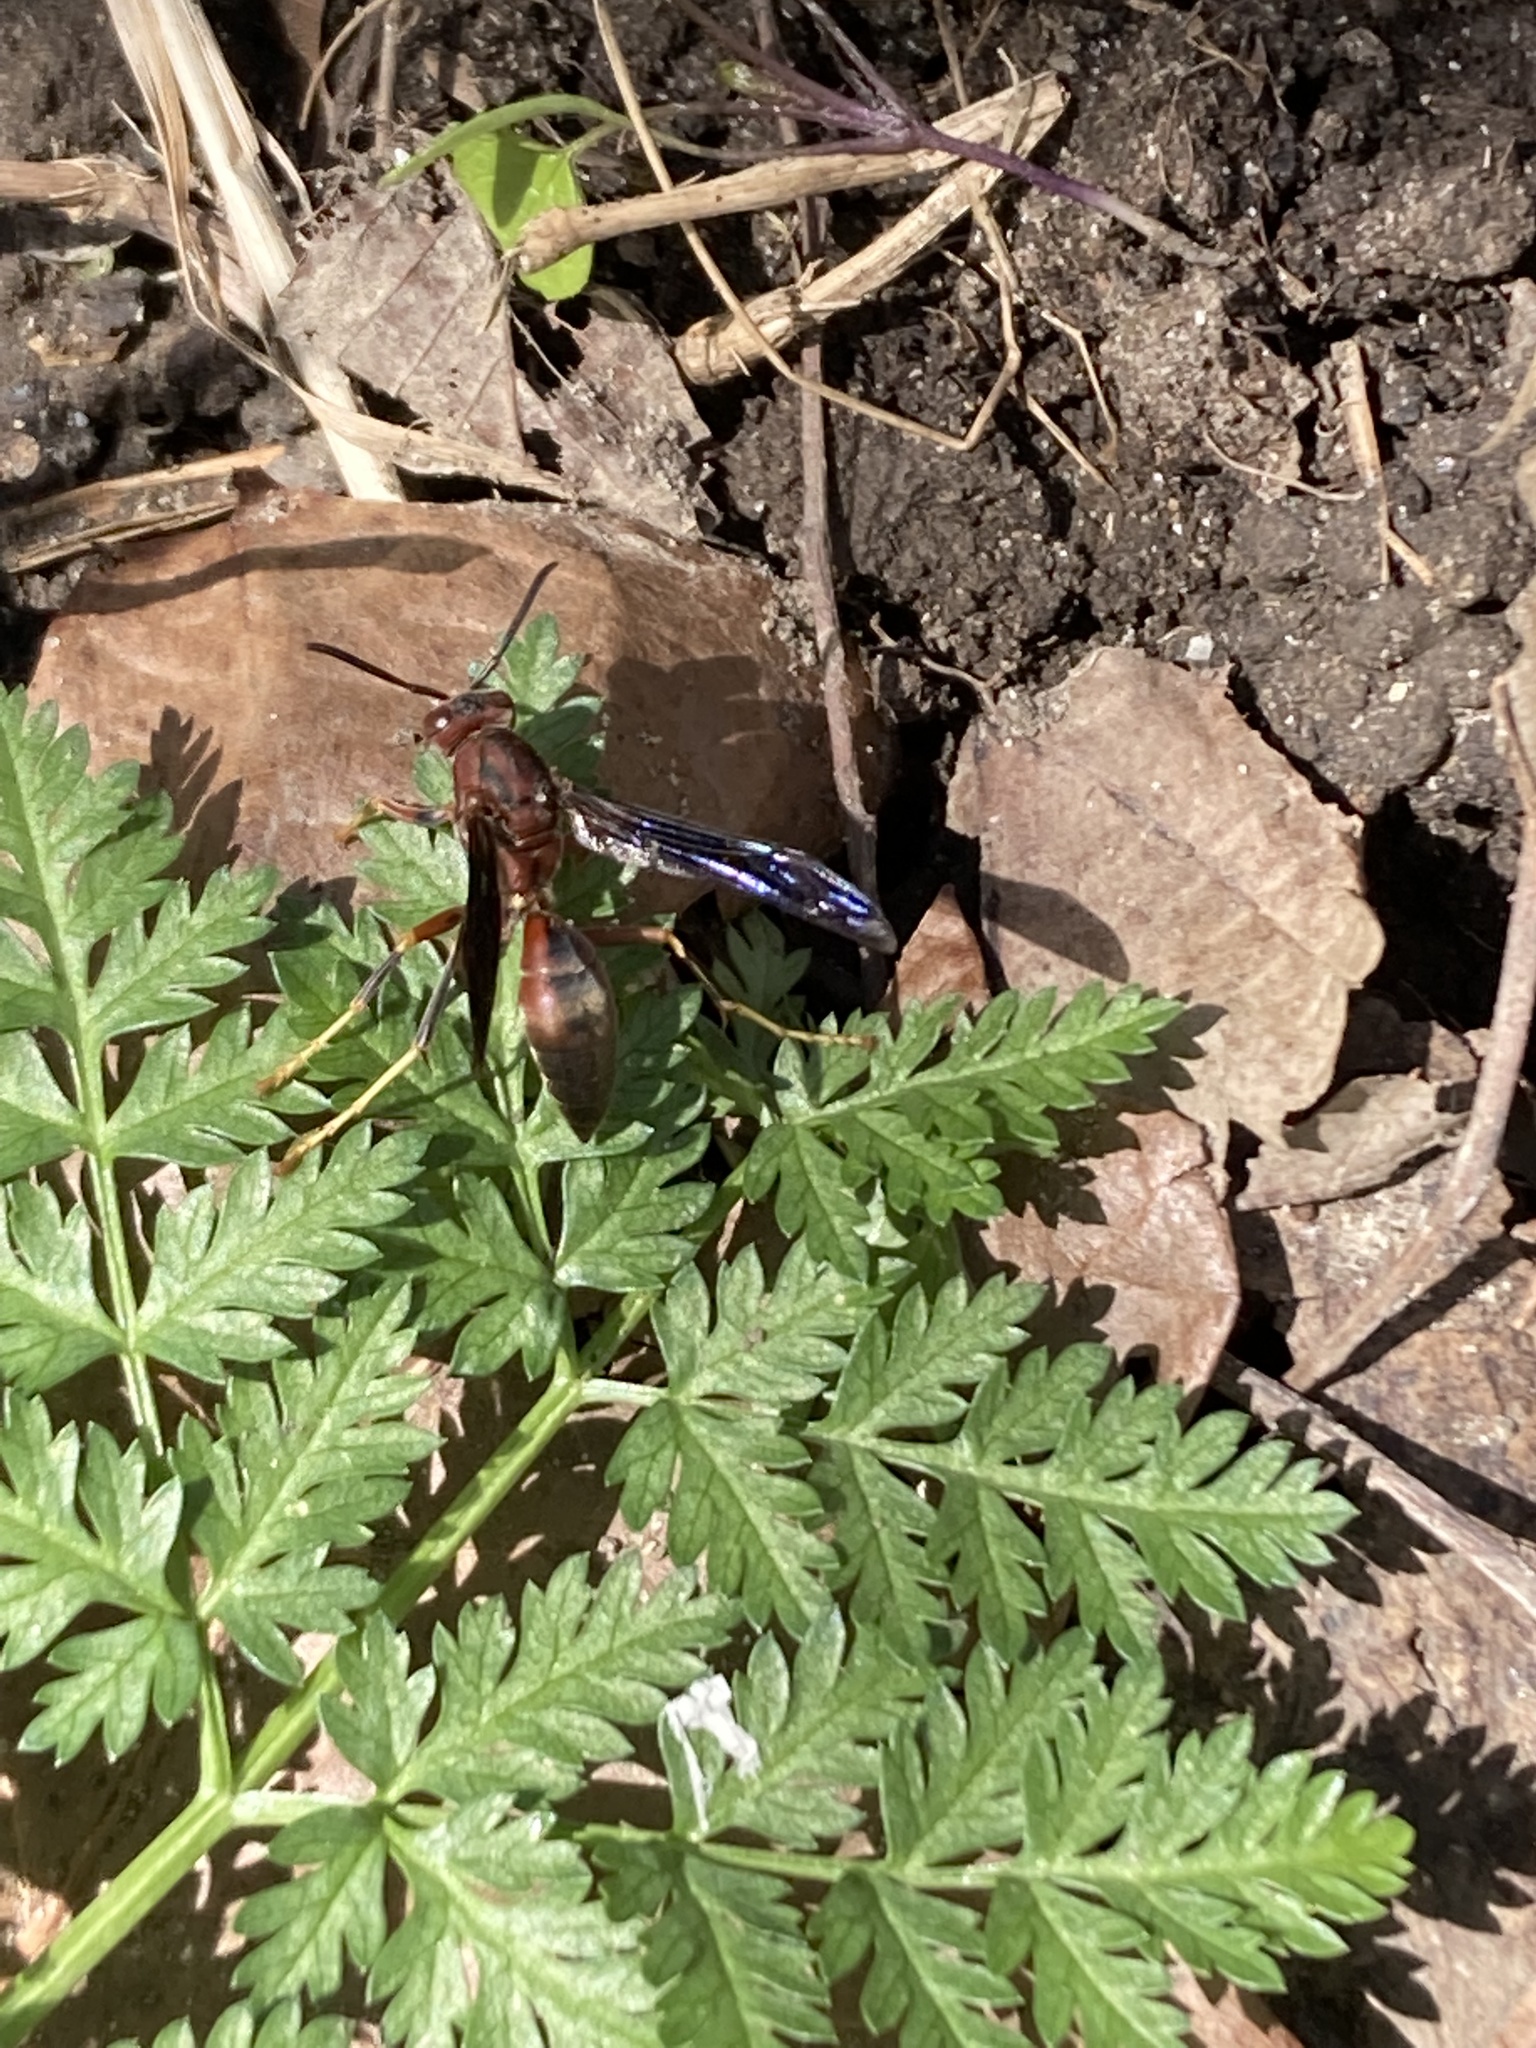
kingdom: Animalia
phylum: Arthropoda
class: Insecta
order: Hymenoptera
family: Eumenidae
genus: Polistes
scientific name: Polistes metricus
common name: Metric paper wasp
